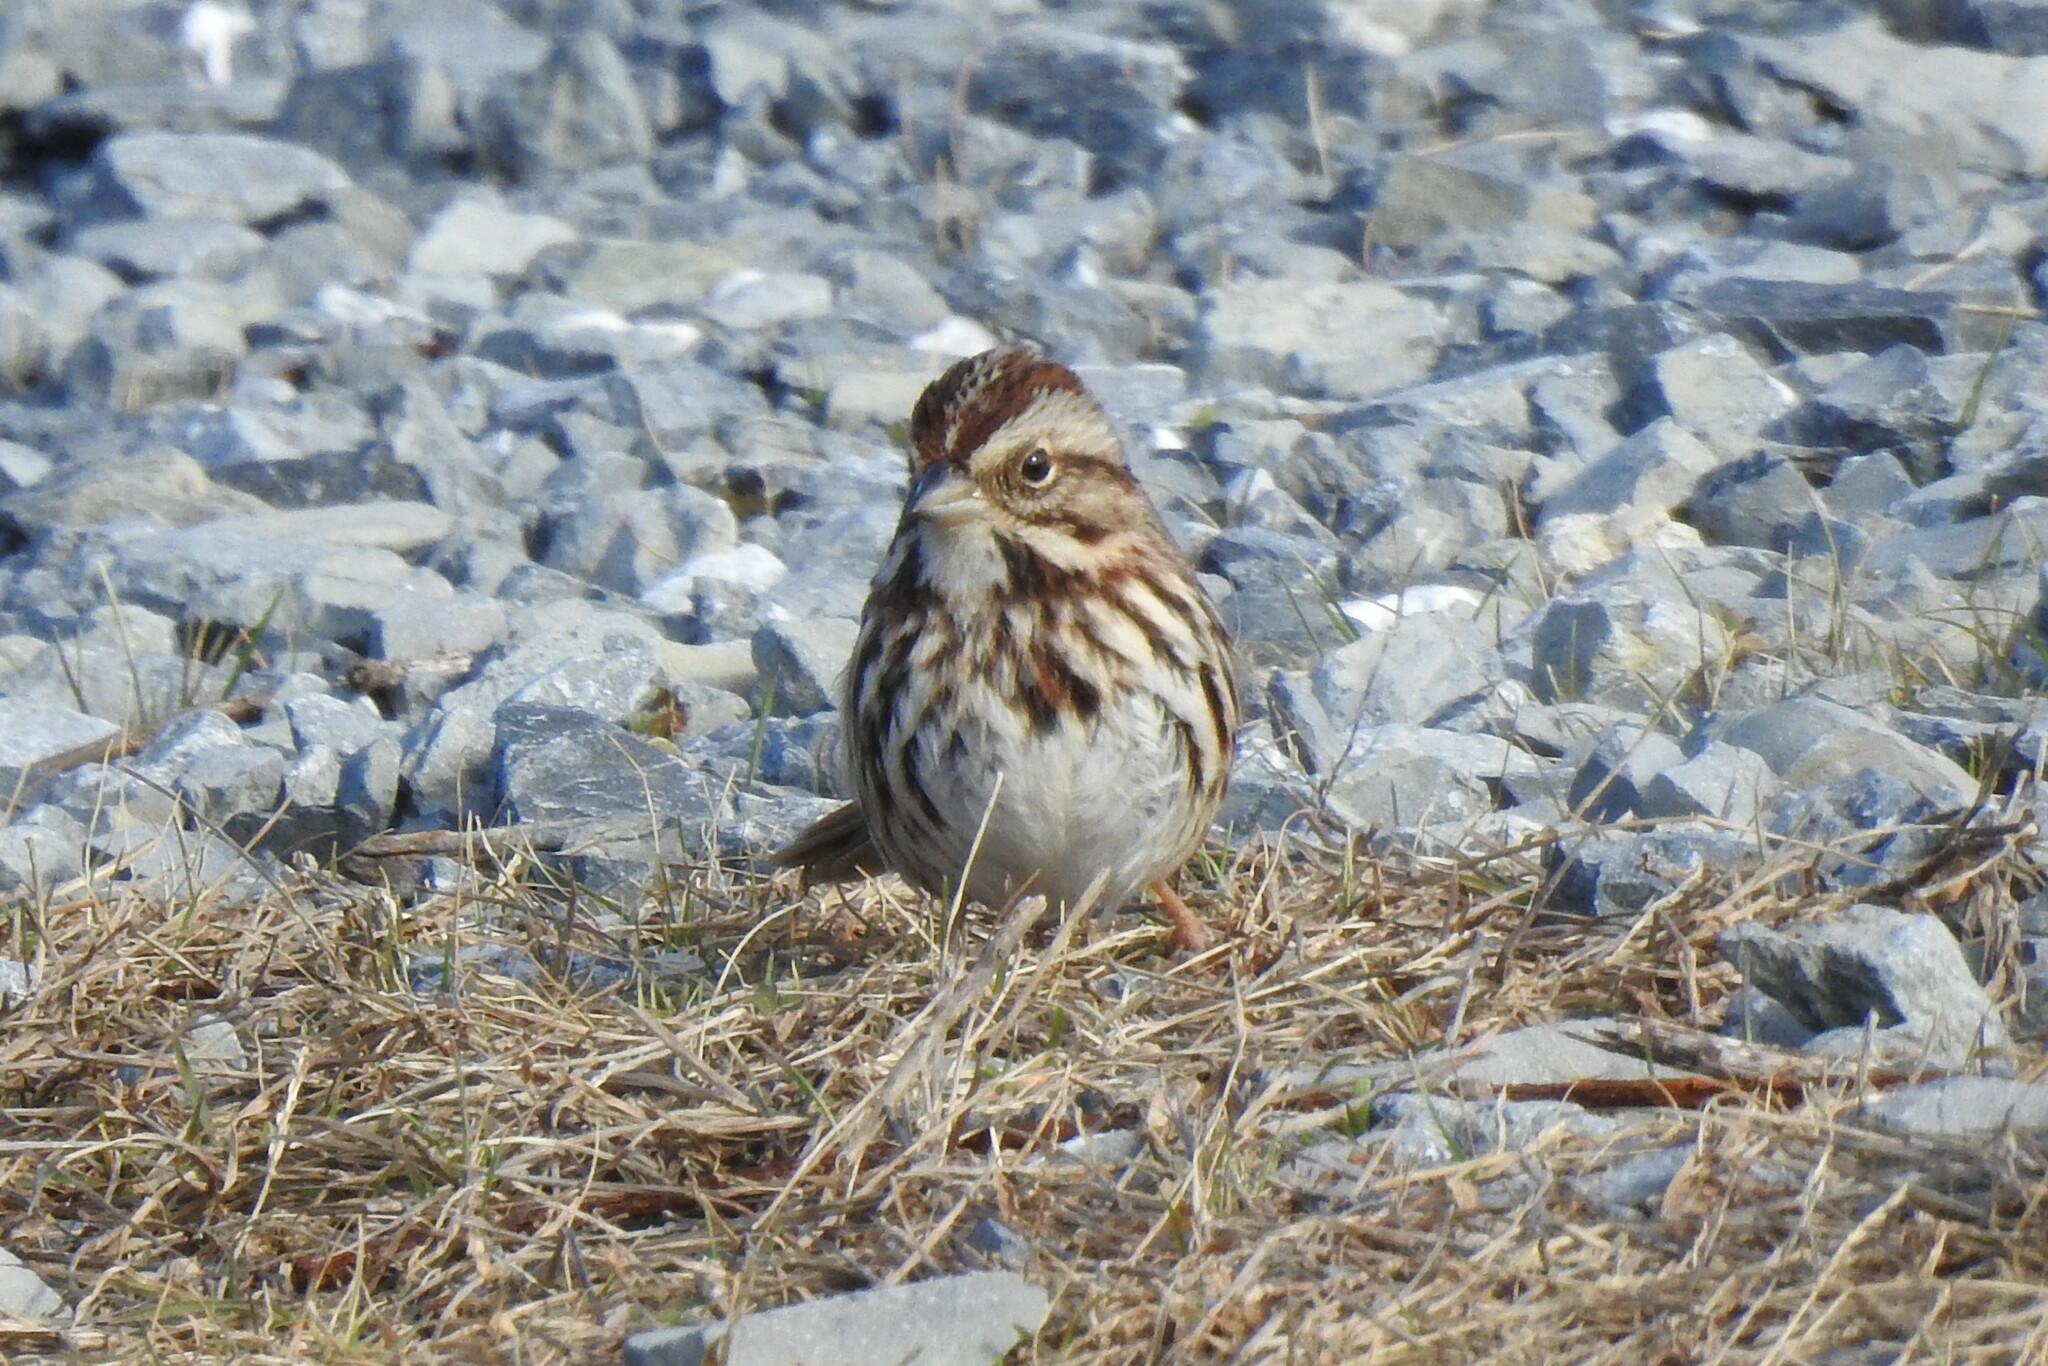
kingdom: Animalia
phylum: Chordata
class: Aves
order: Passeriformes
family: Passerellidae
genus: Melospiza
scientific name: Melospiza melodia
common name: Song sparrow
